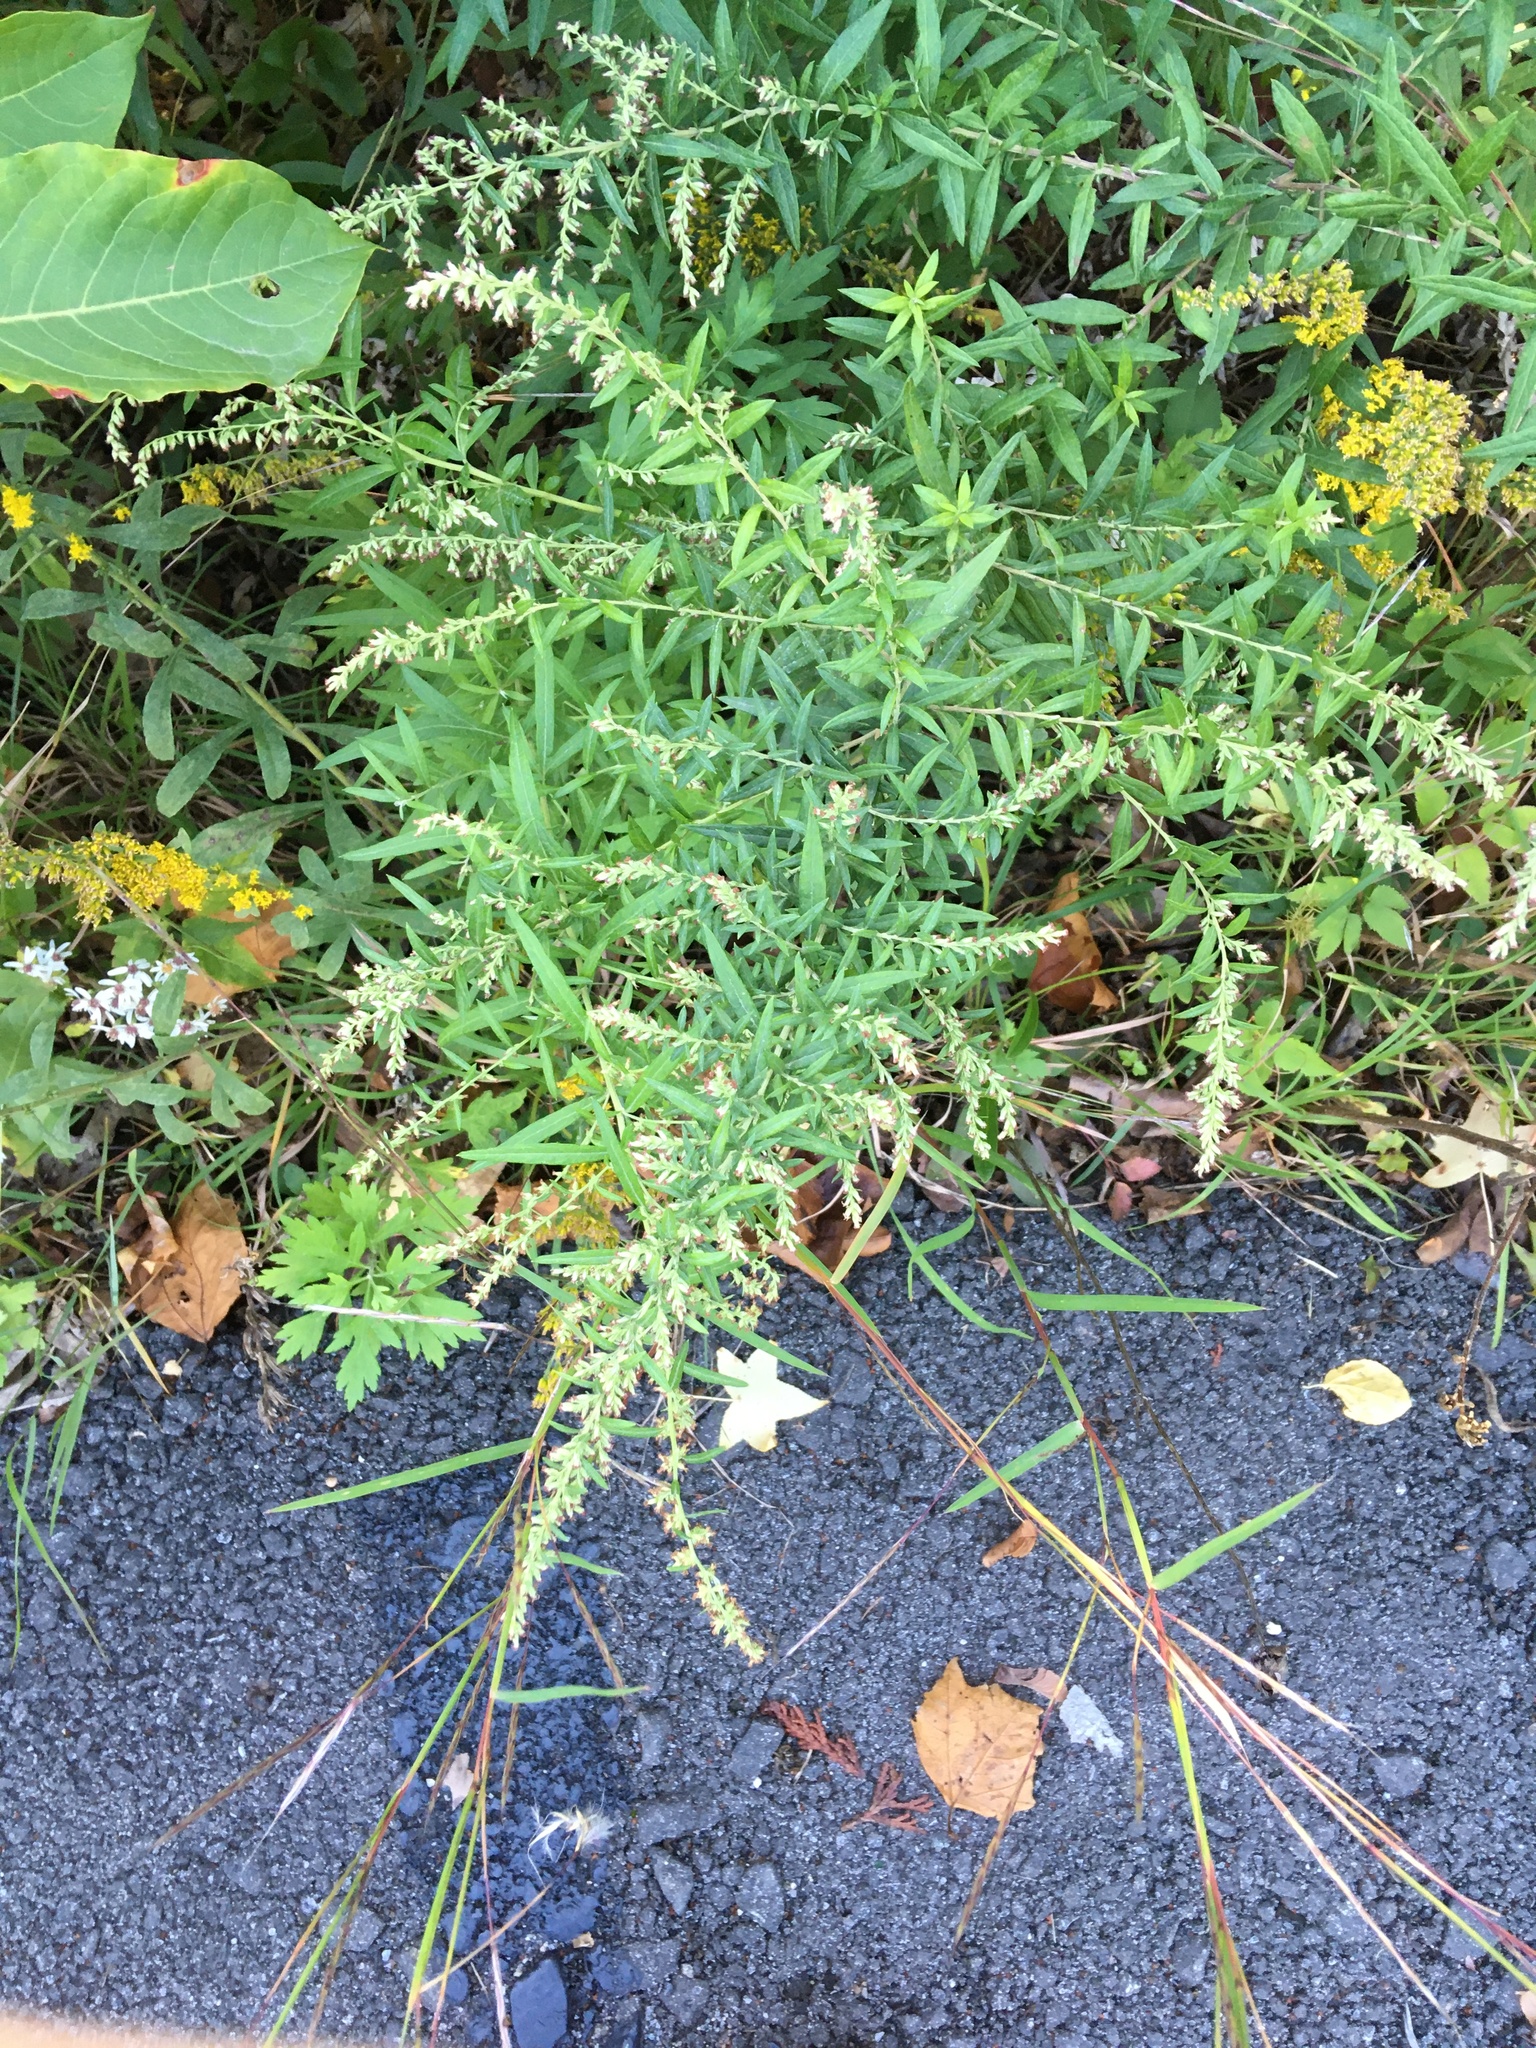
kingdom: Plantae
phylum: Tracheophyta
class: Magnoliopsida
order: Asterales
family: Asteraceae
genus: Artemisia
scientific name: Artemisia vulgaris
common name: Mugwort
